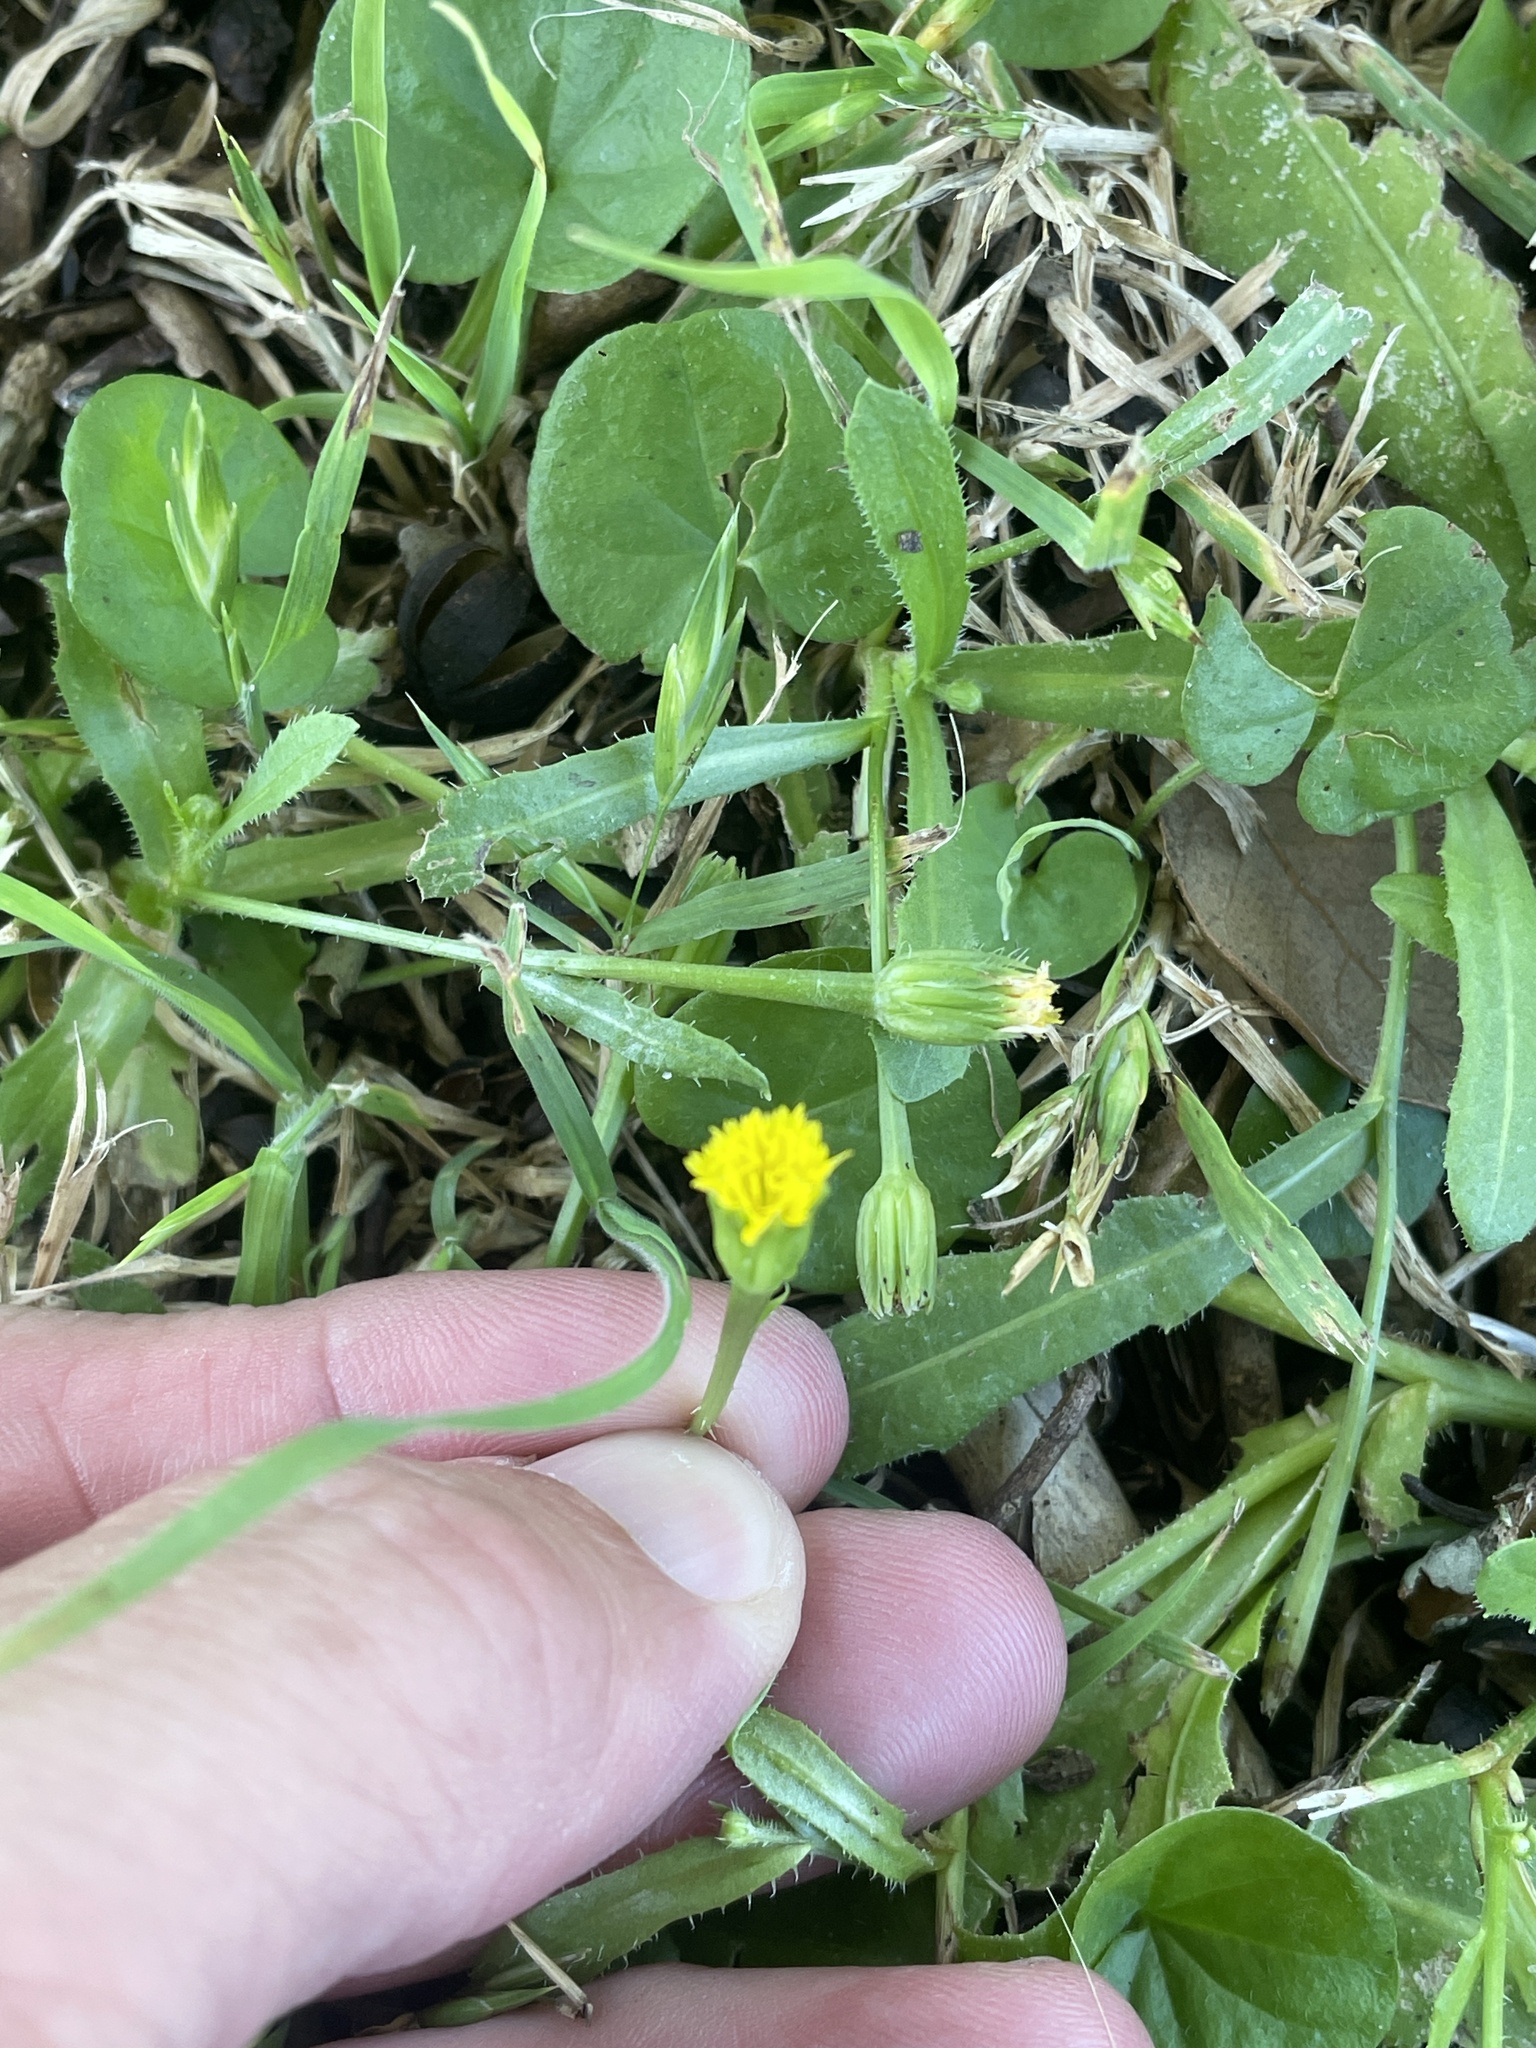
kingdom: Plantae
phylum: Tracheophyta
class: Magnoliopsida
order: Asterales
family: Asteraceae
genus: Hedypnois
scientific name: Hedypnois rhagadioloides
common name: Cretan weed
